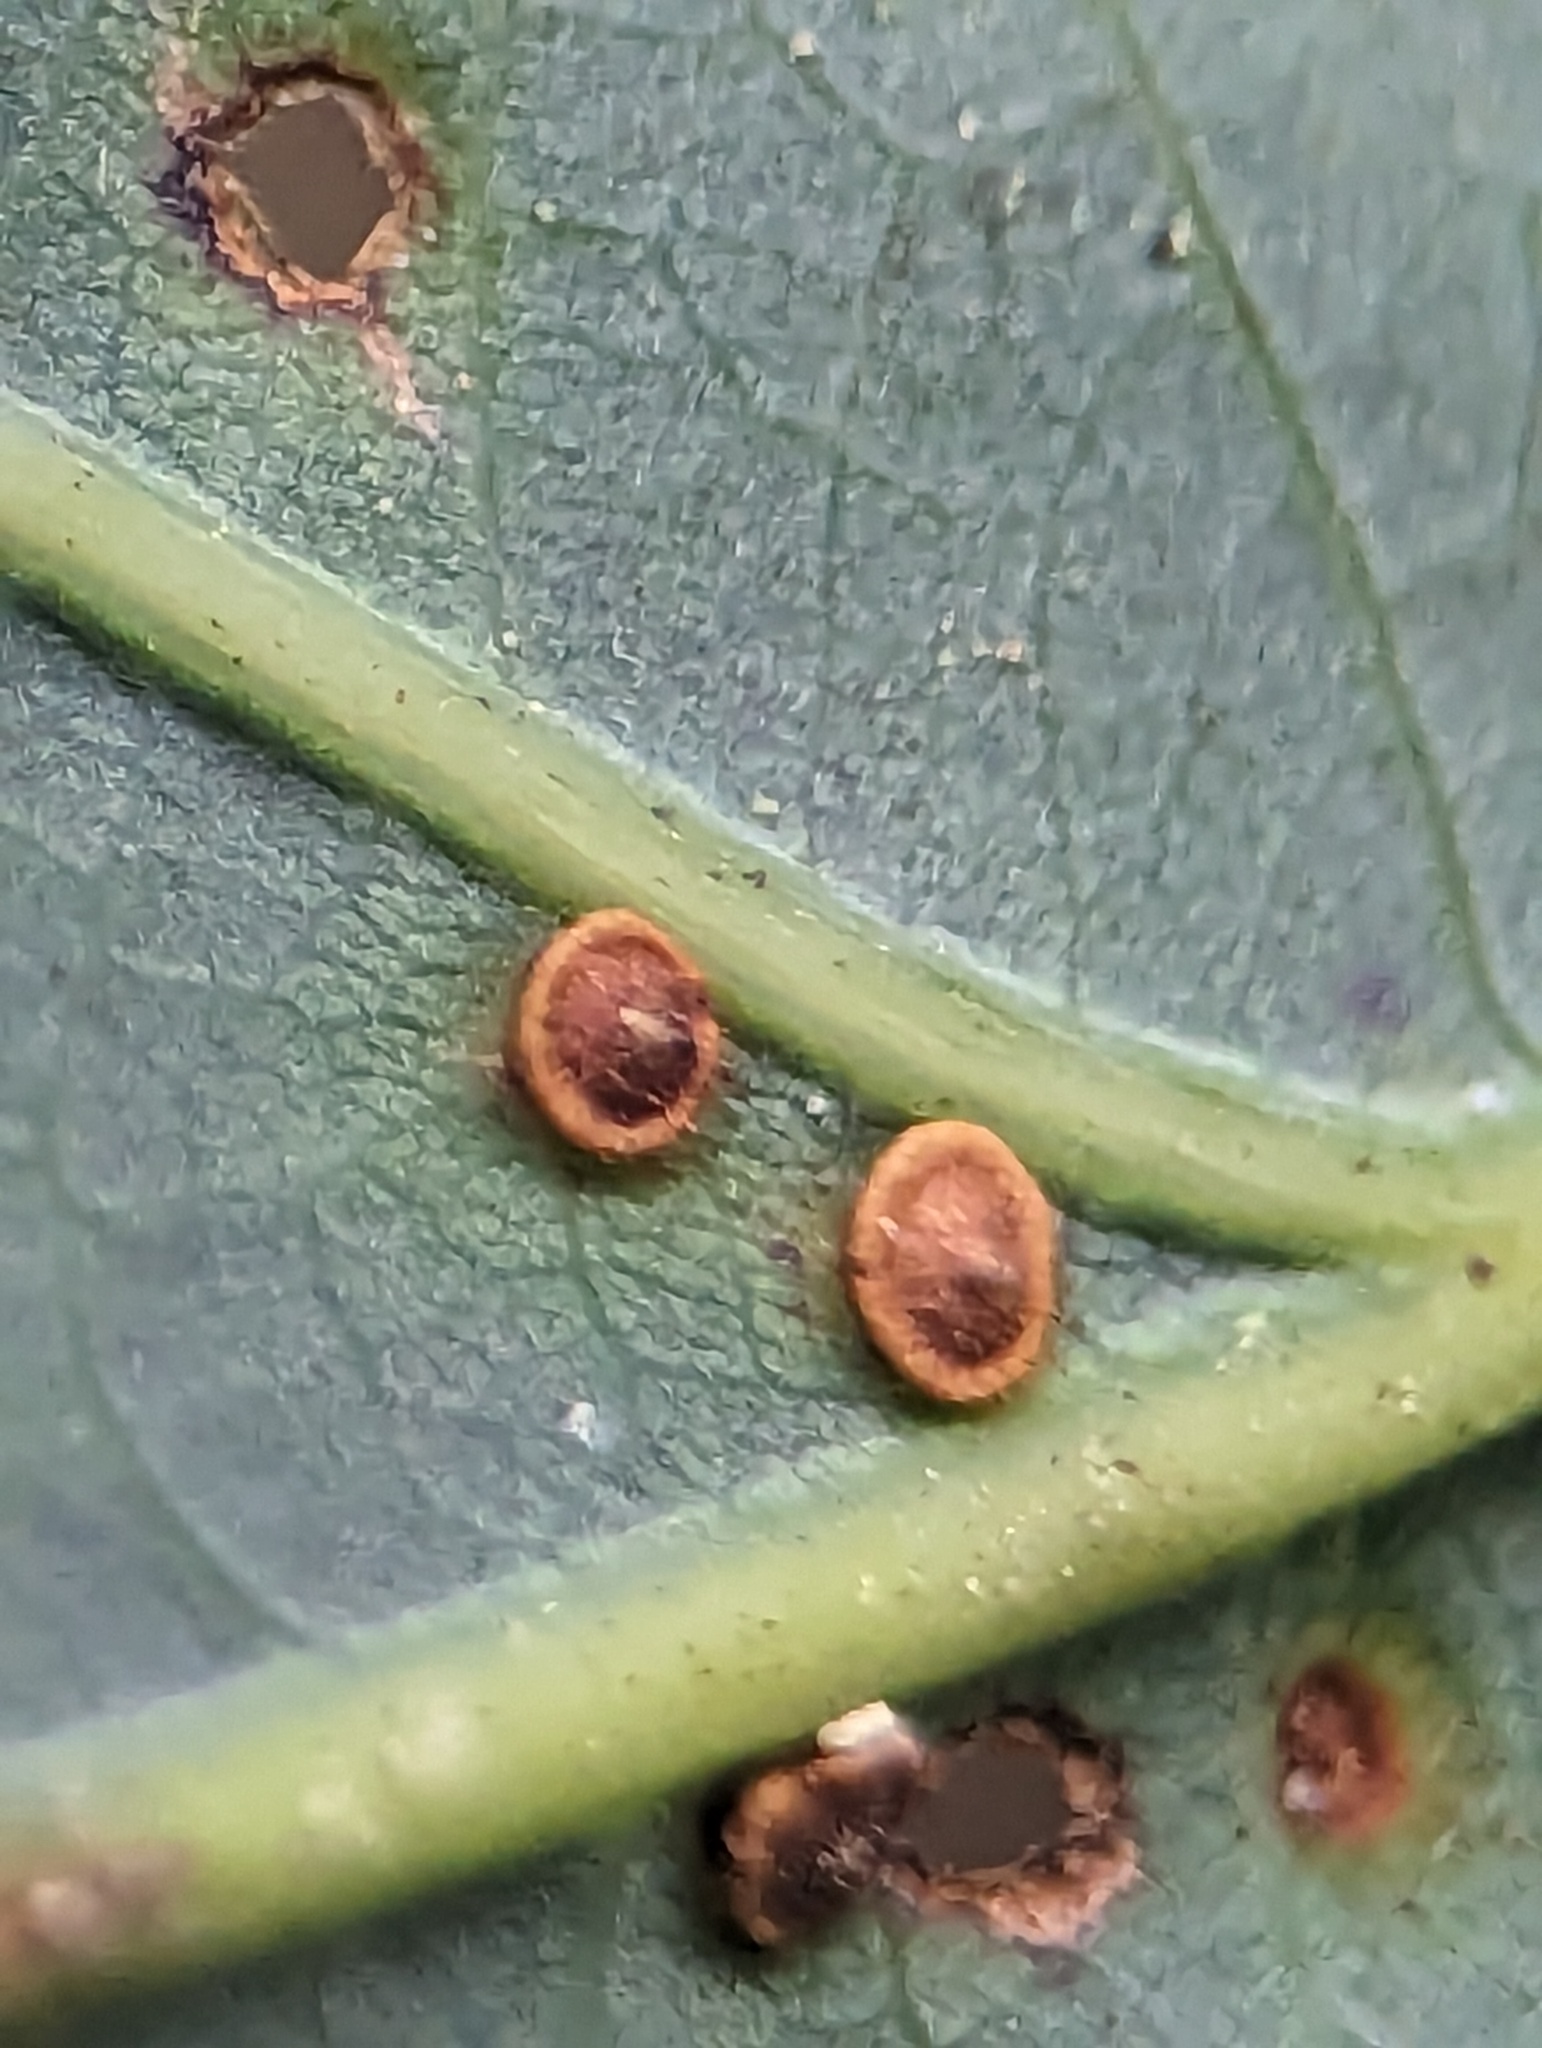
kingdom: Animalia
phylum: Arthropoda
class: Insecta
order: Hymenoptera
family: Cynipidae
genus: Neuroterus
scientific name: Neuroterus
